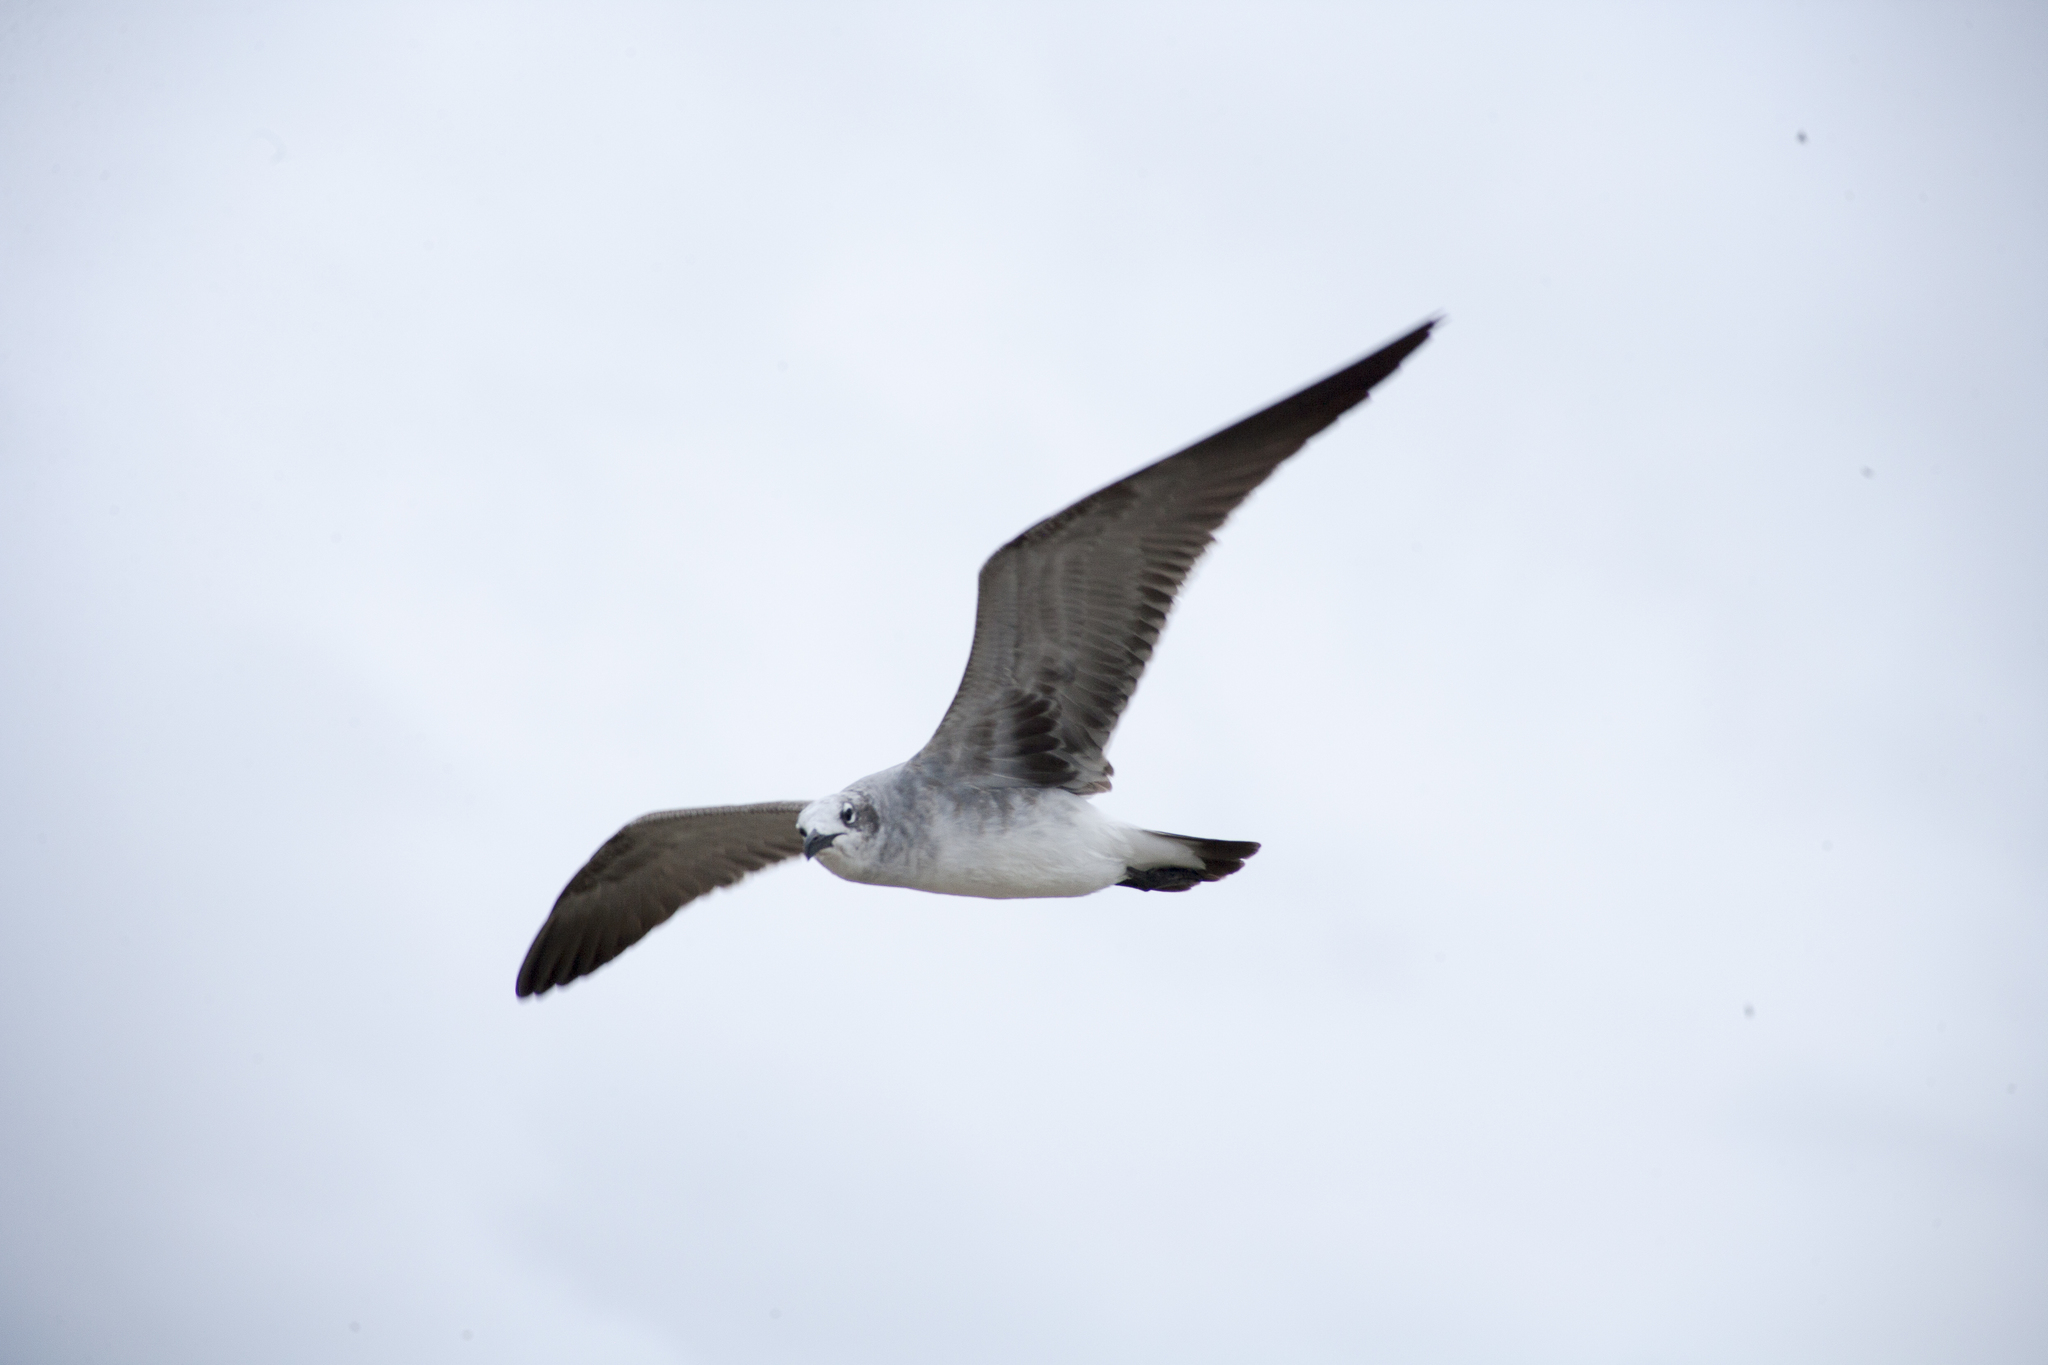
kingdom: Animalia
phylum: Chordata
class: Aves
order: Charadriiformes
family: Laridae
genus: Leucophaeus
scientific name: Leucophaeus atricilla
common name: Laughing gull
